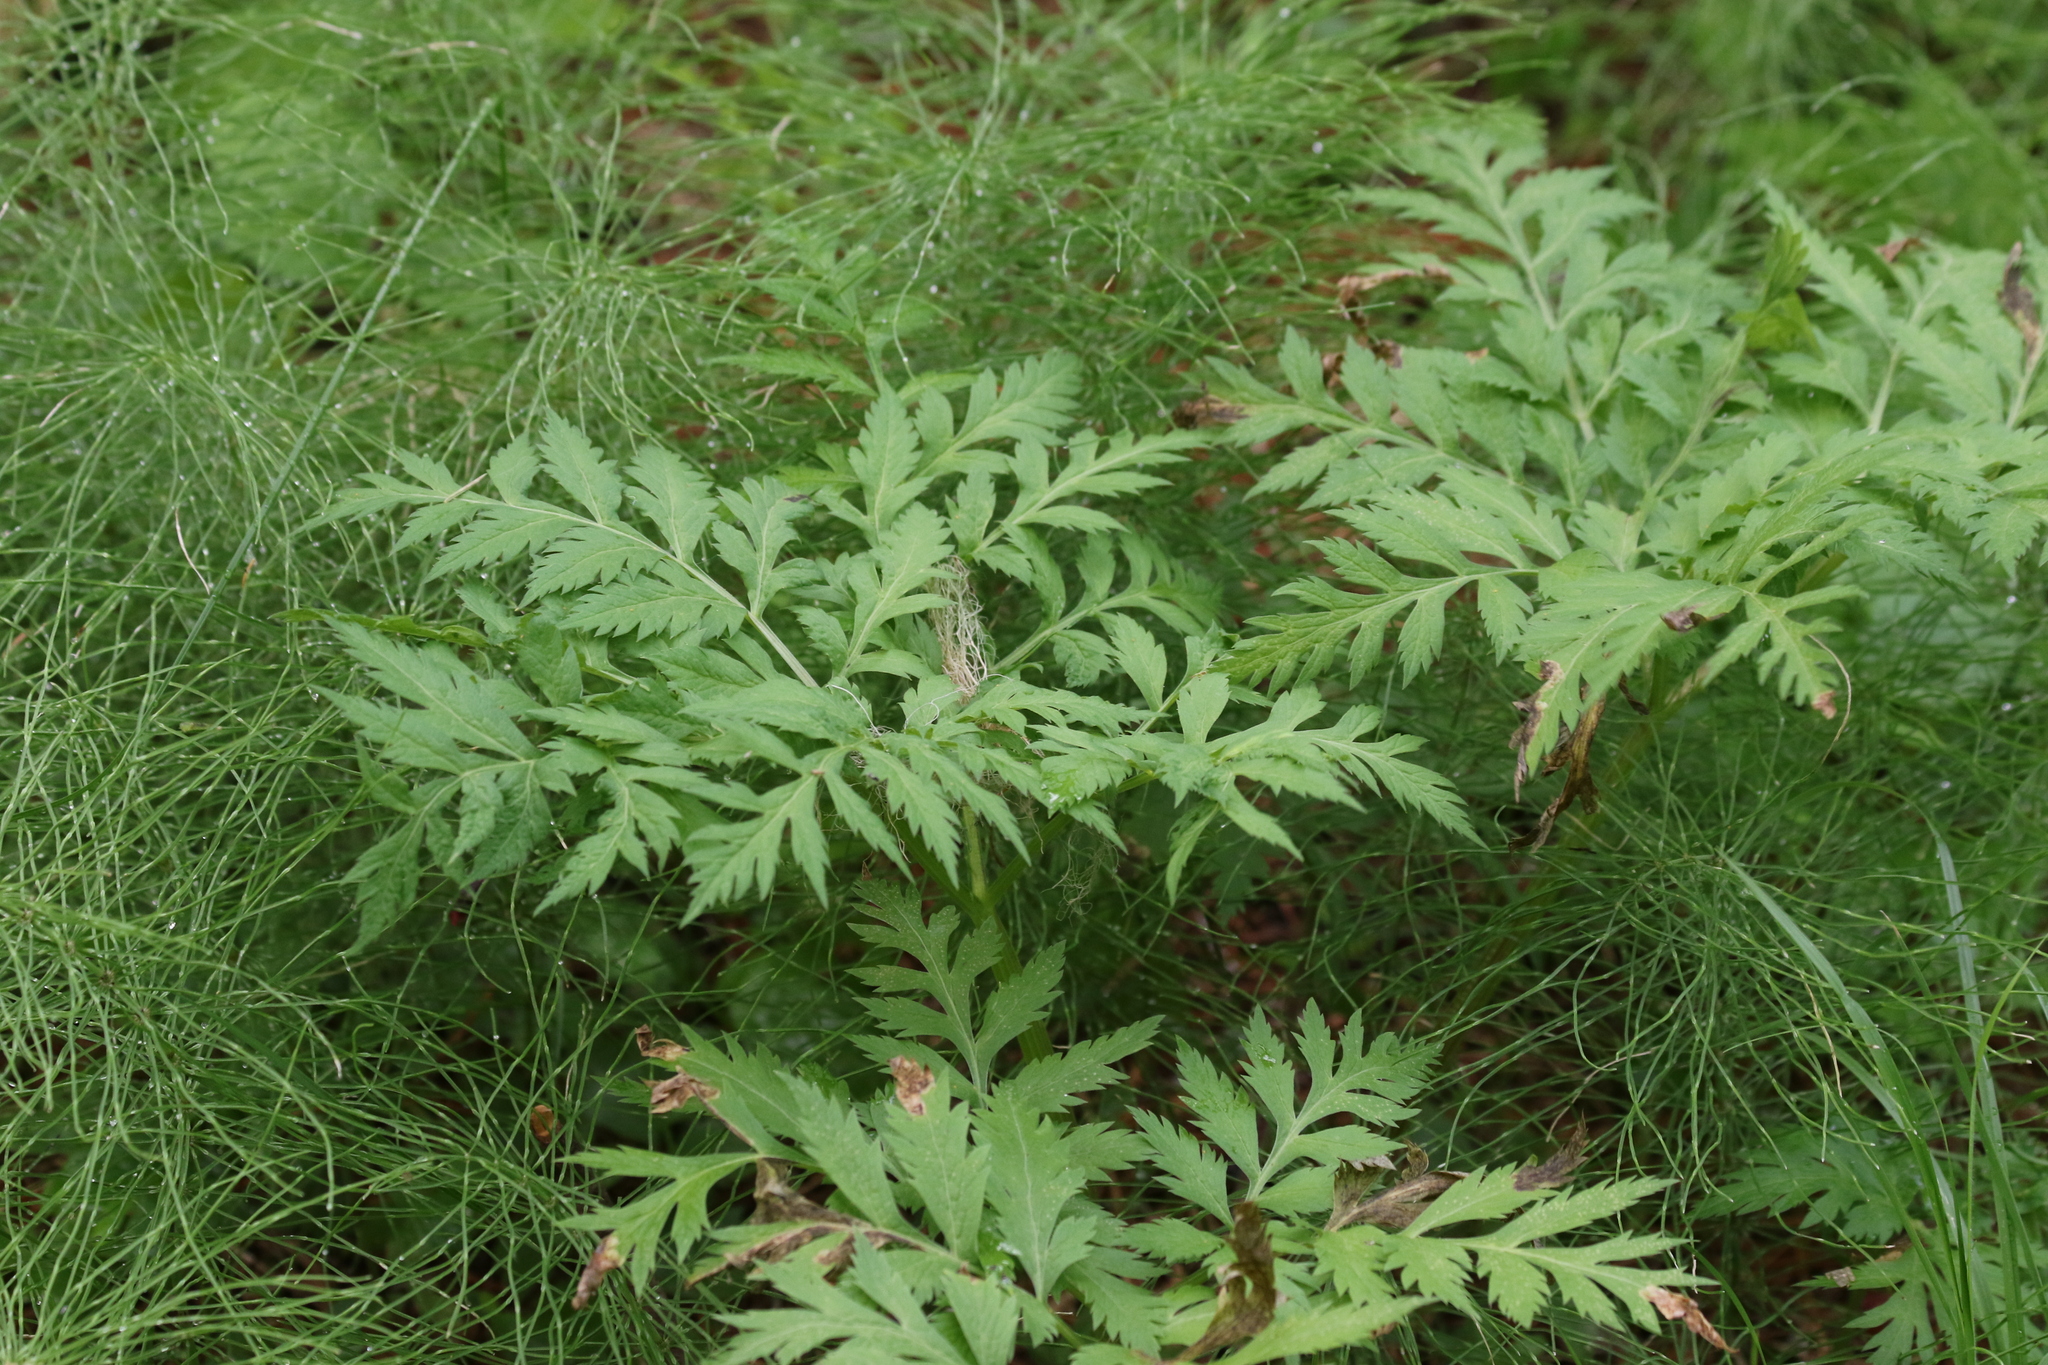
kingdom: Plantae
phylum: Tracheophyta
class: Magnoliopsida
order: Apiales
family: Apiaceae
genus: Pleurospermum
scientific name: Pleurospermum uralense
